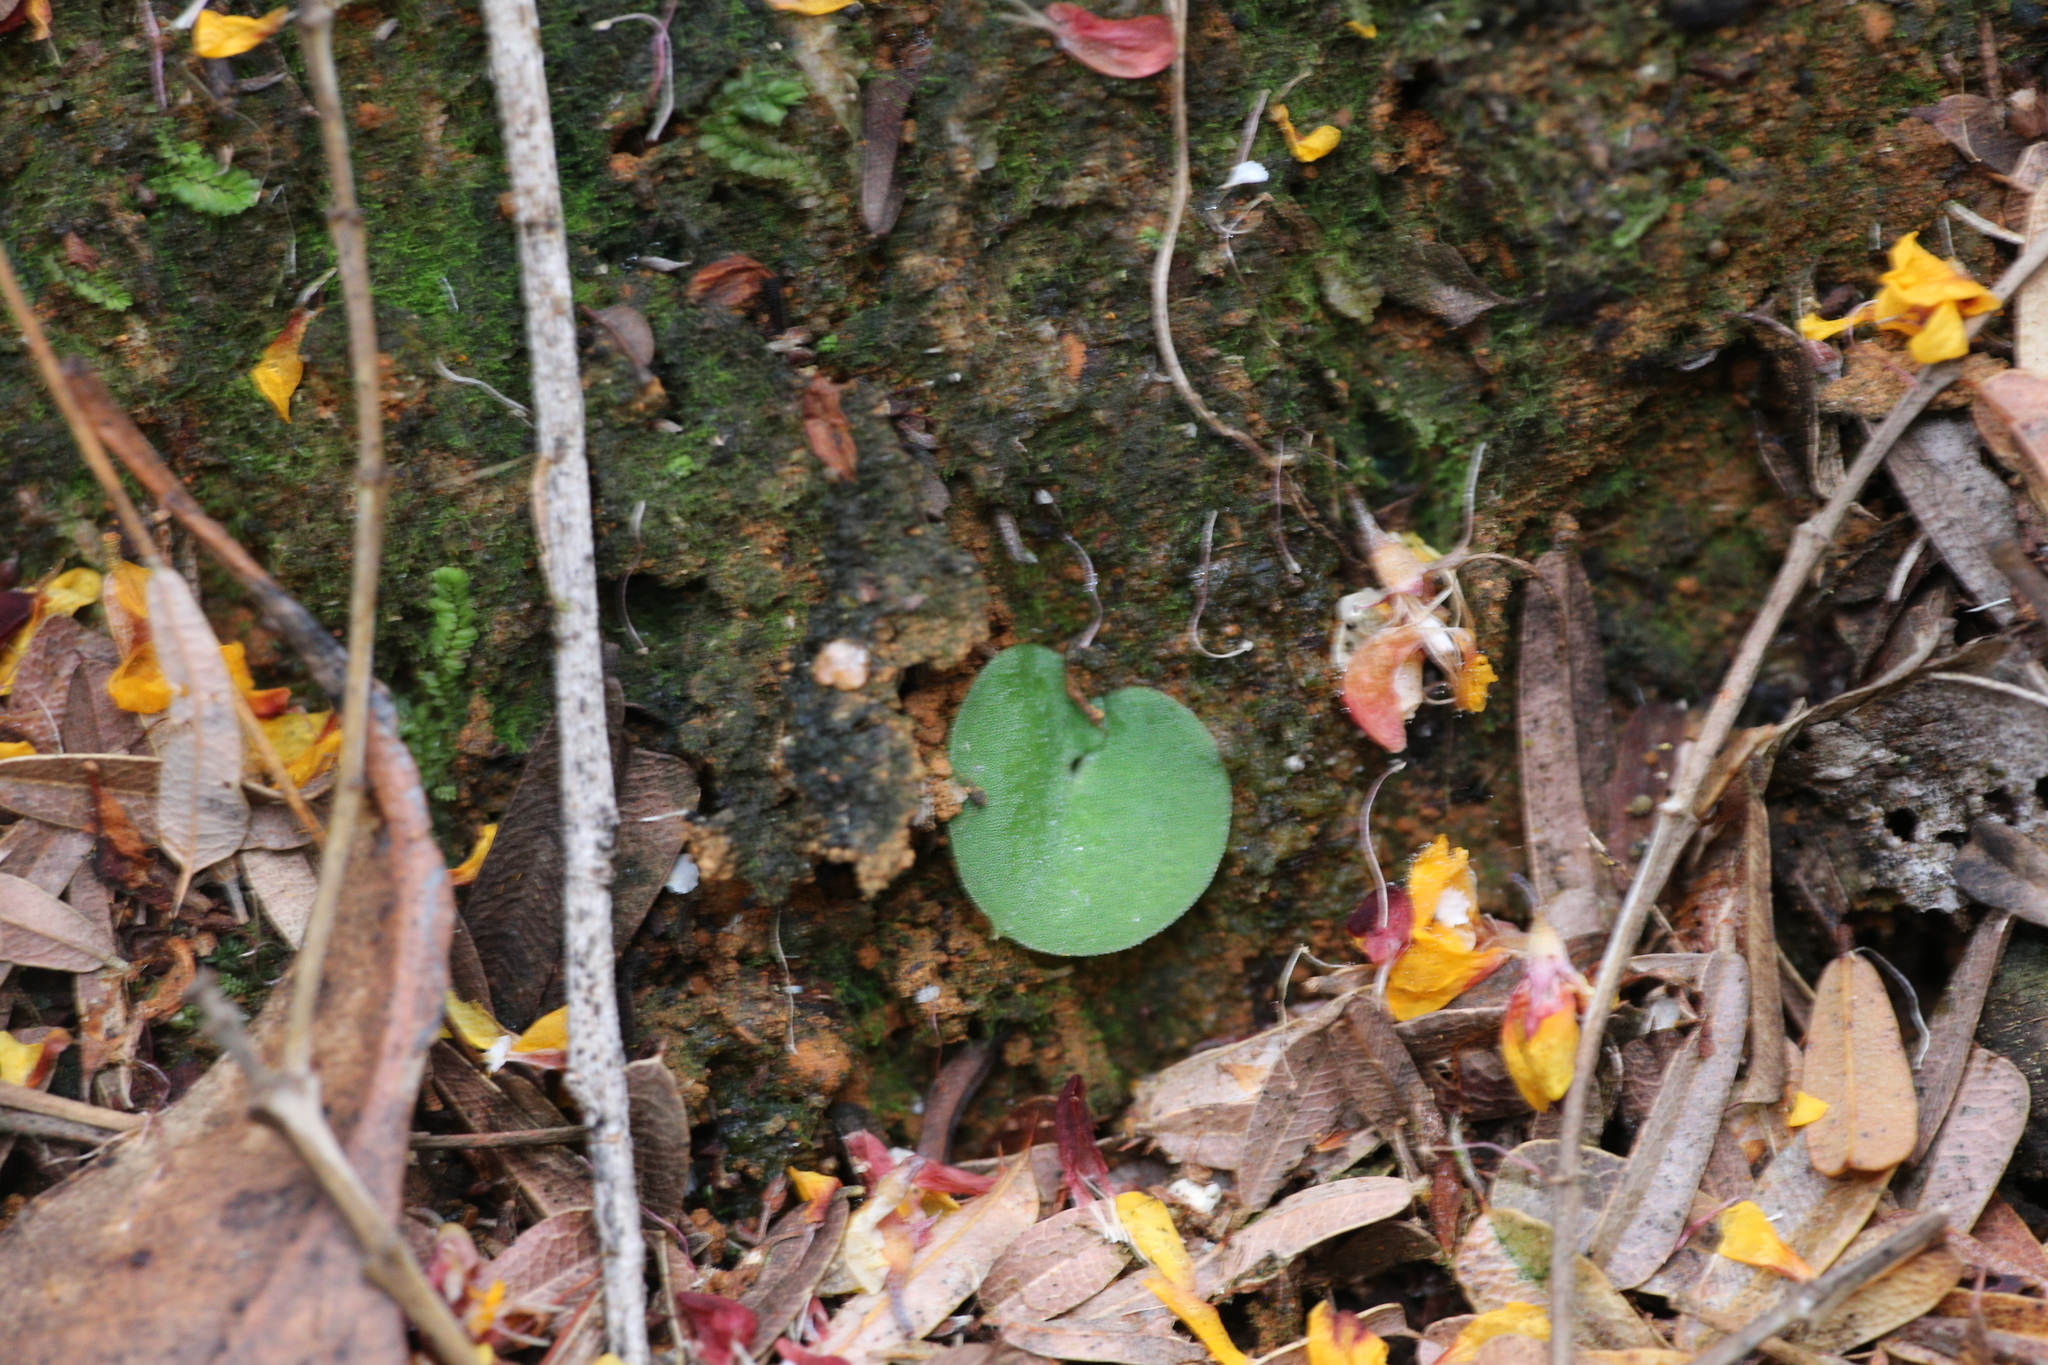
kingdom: Plantae
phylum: Tracheophyta
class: Liliopsida
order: Asparagales
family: Orchidaceae
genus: Corybas
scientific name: Corybas recurvus
